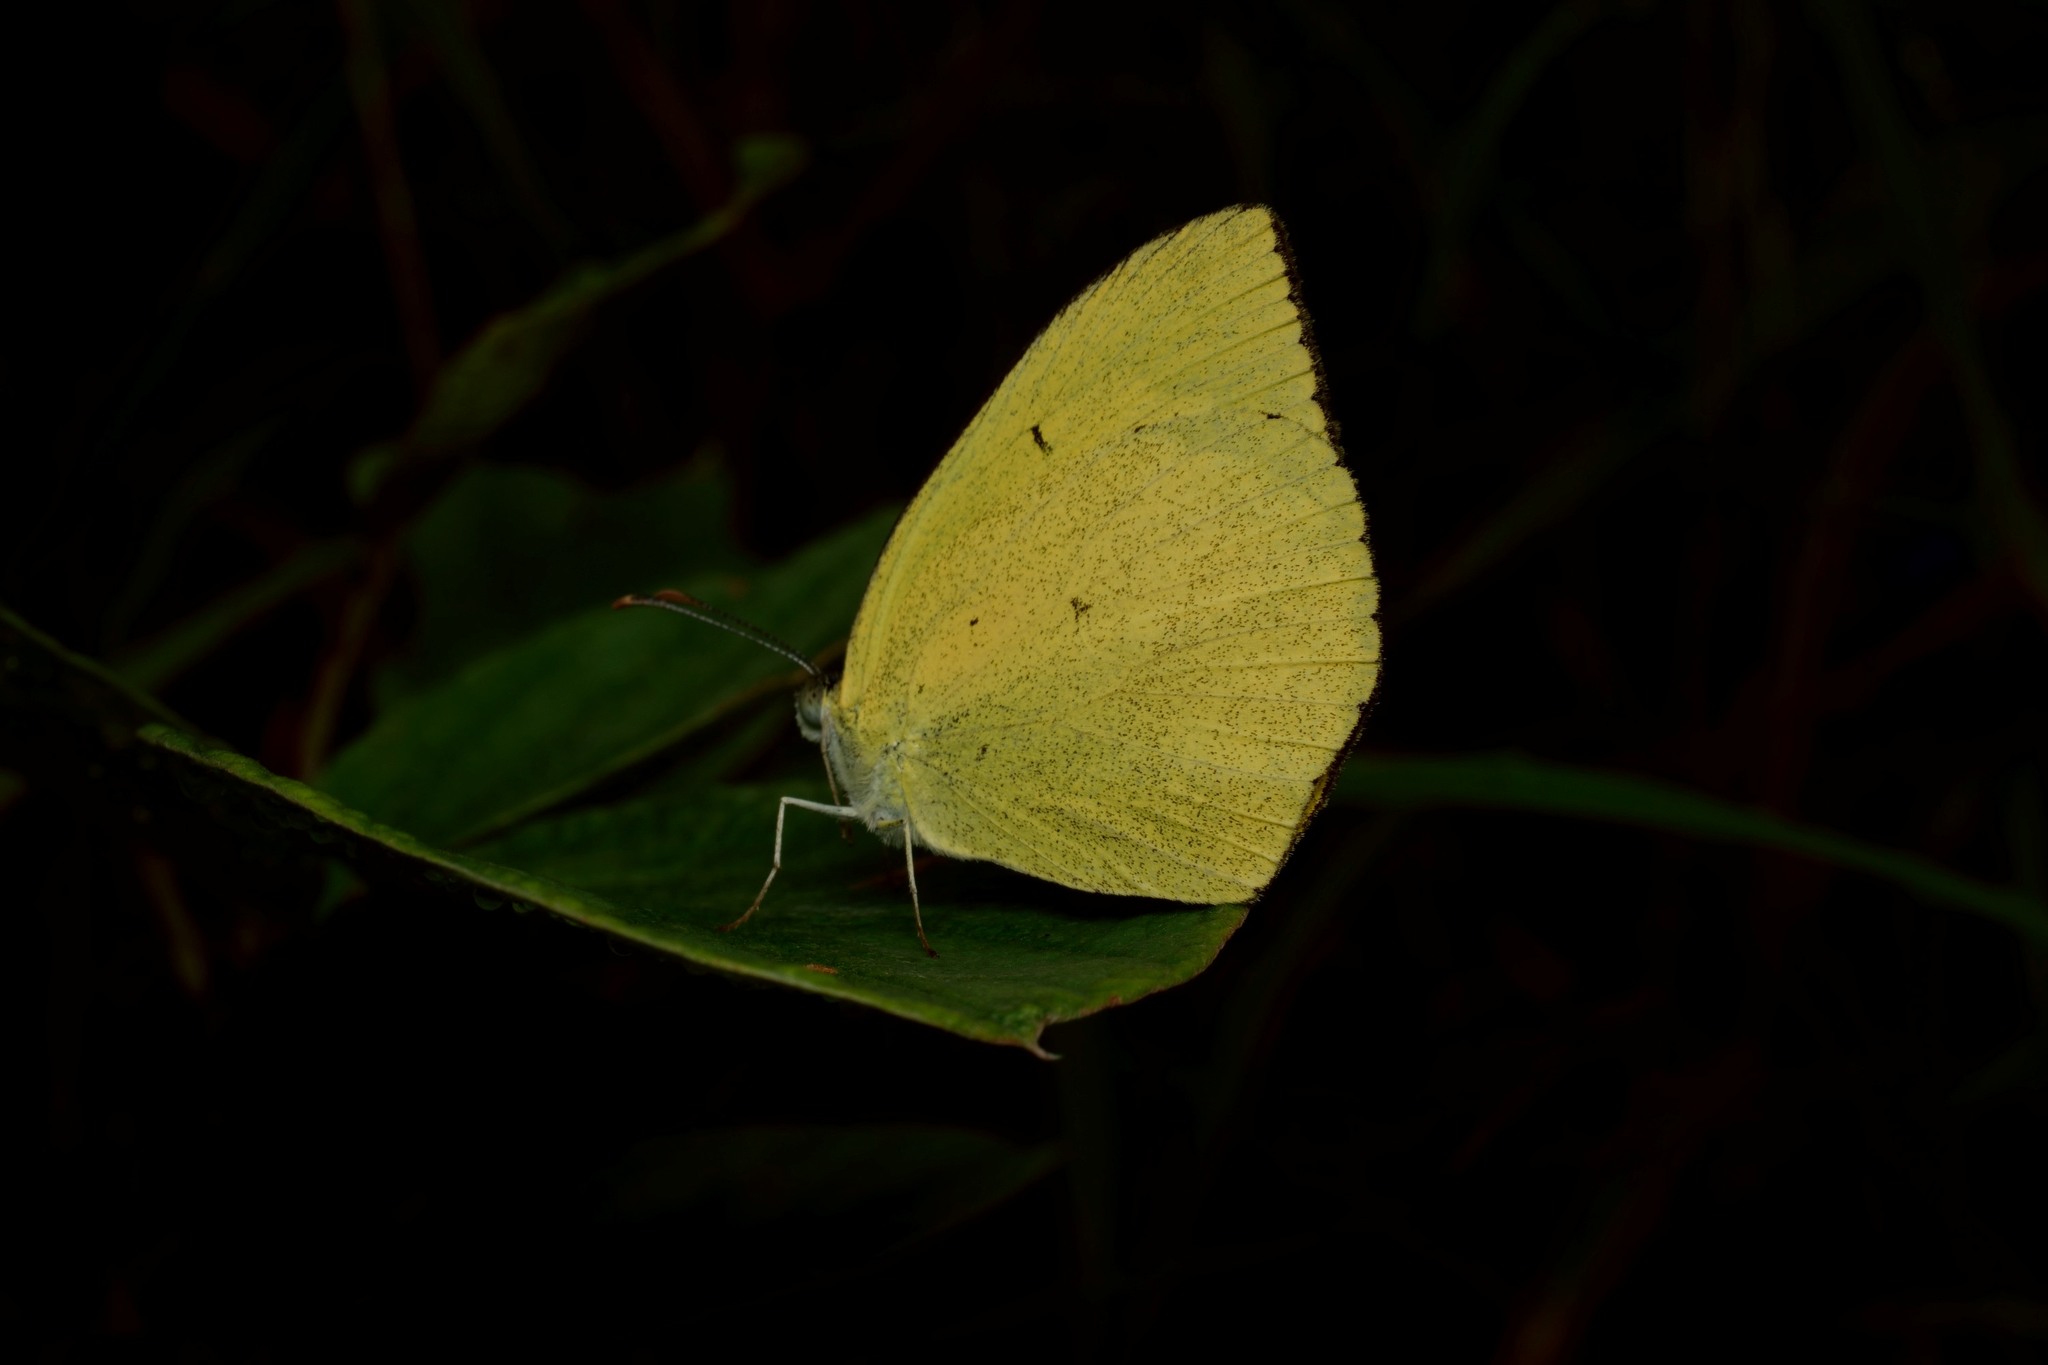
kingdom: Animalia
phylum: Arthropoda
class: Insecta
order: Lepidoptera
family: Pieridae
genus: Eurema
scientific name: Eurema laeta
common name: Spotless grass yellow
